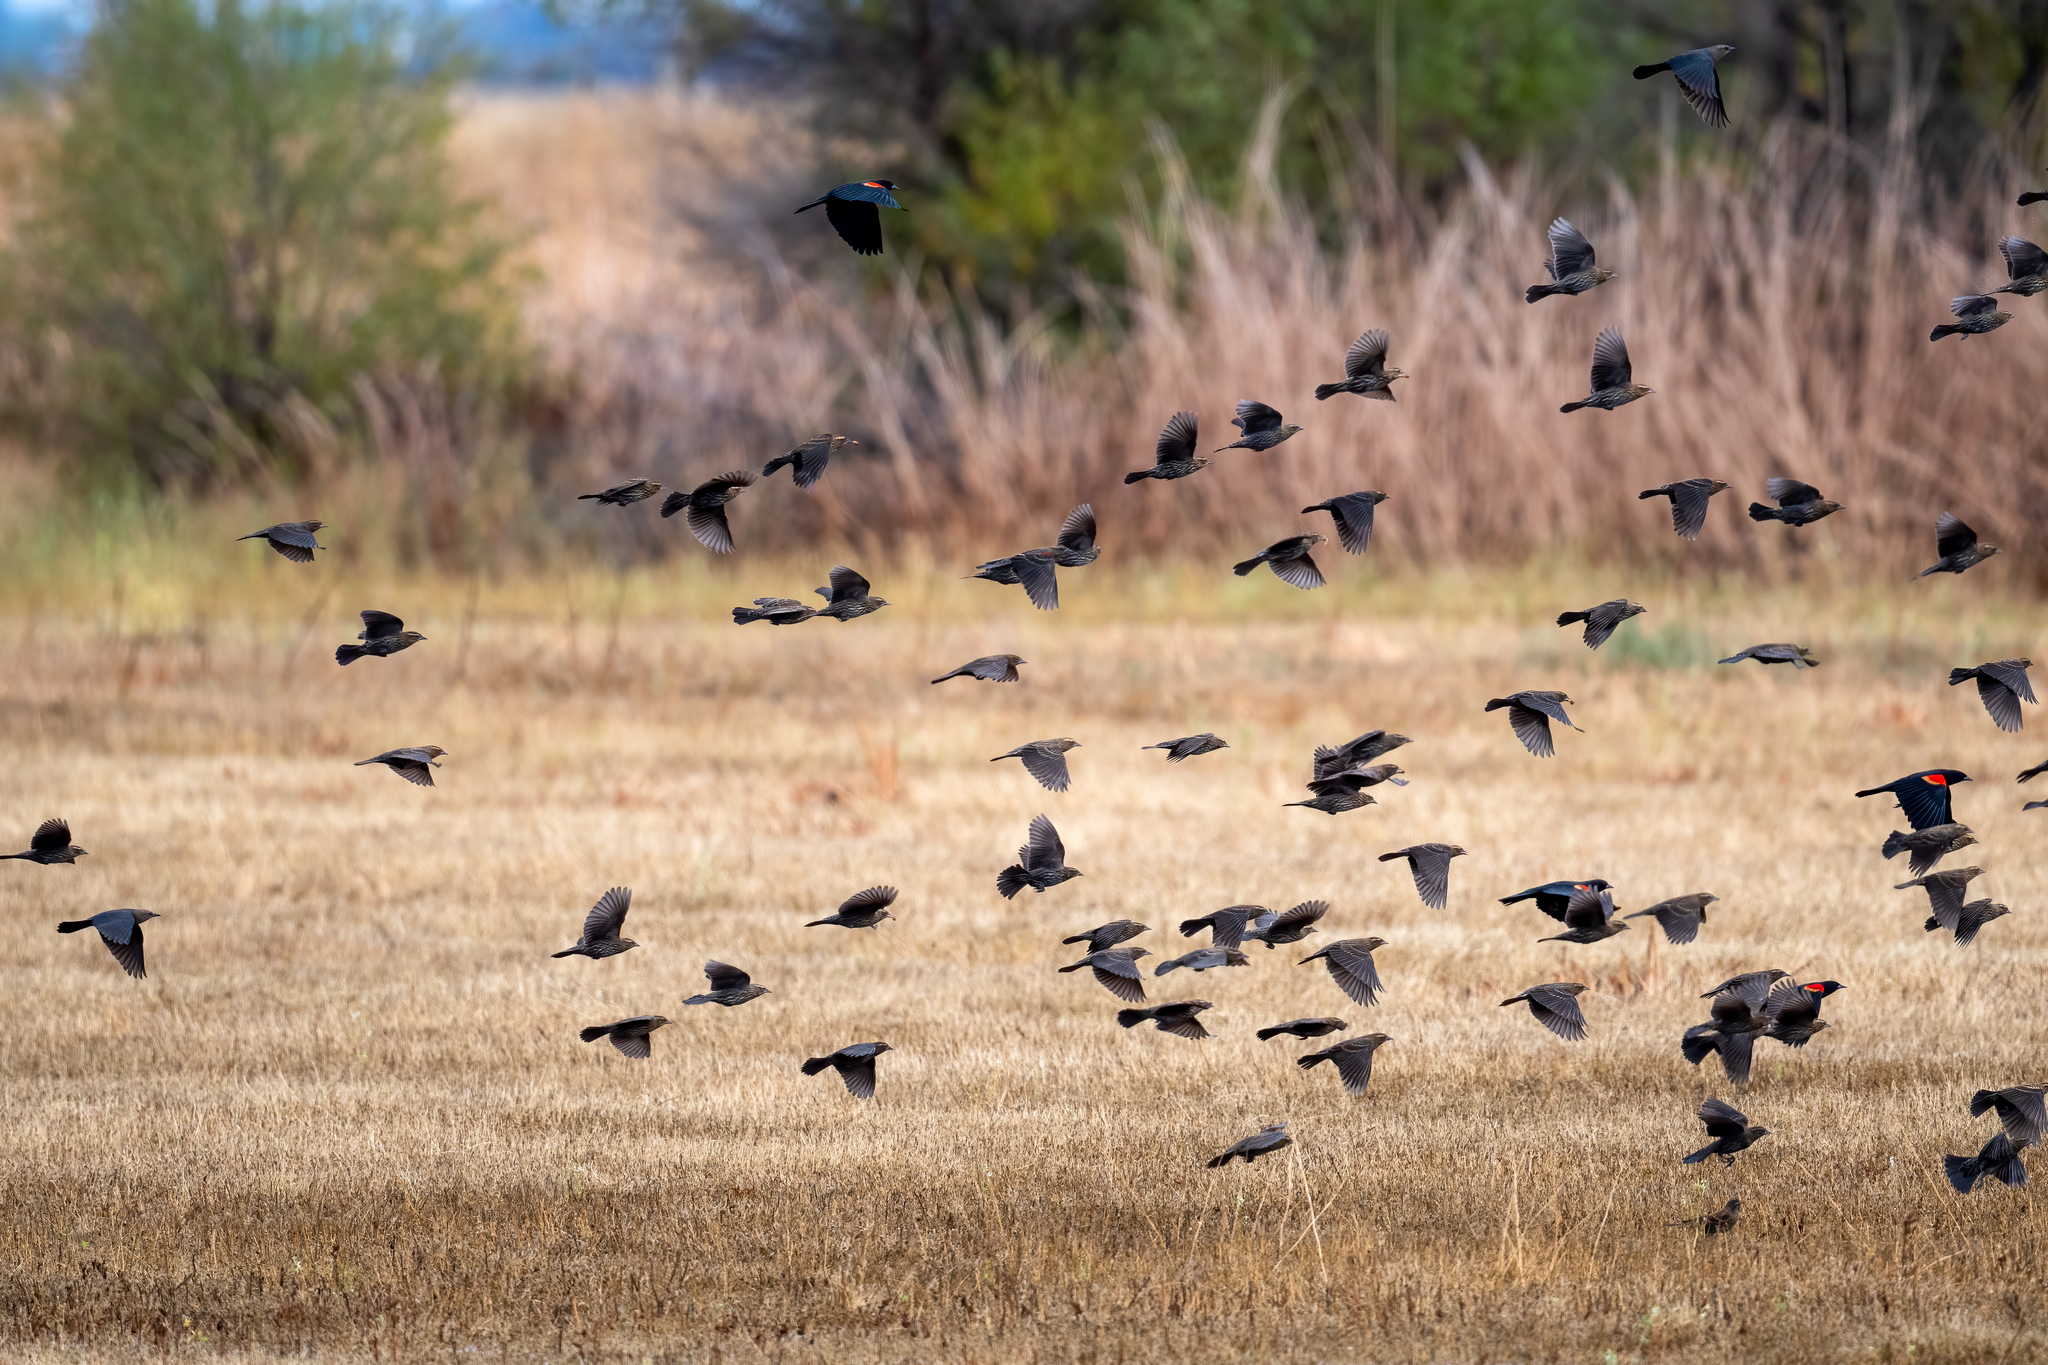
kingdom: Animalia
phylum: Chordata
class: Aves
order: Passeriformes
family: Icteridae
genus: Agelaius
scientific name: Agelaius phoeniceus
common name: Red-winged blackbird
